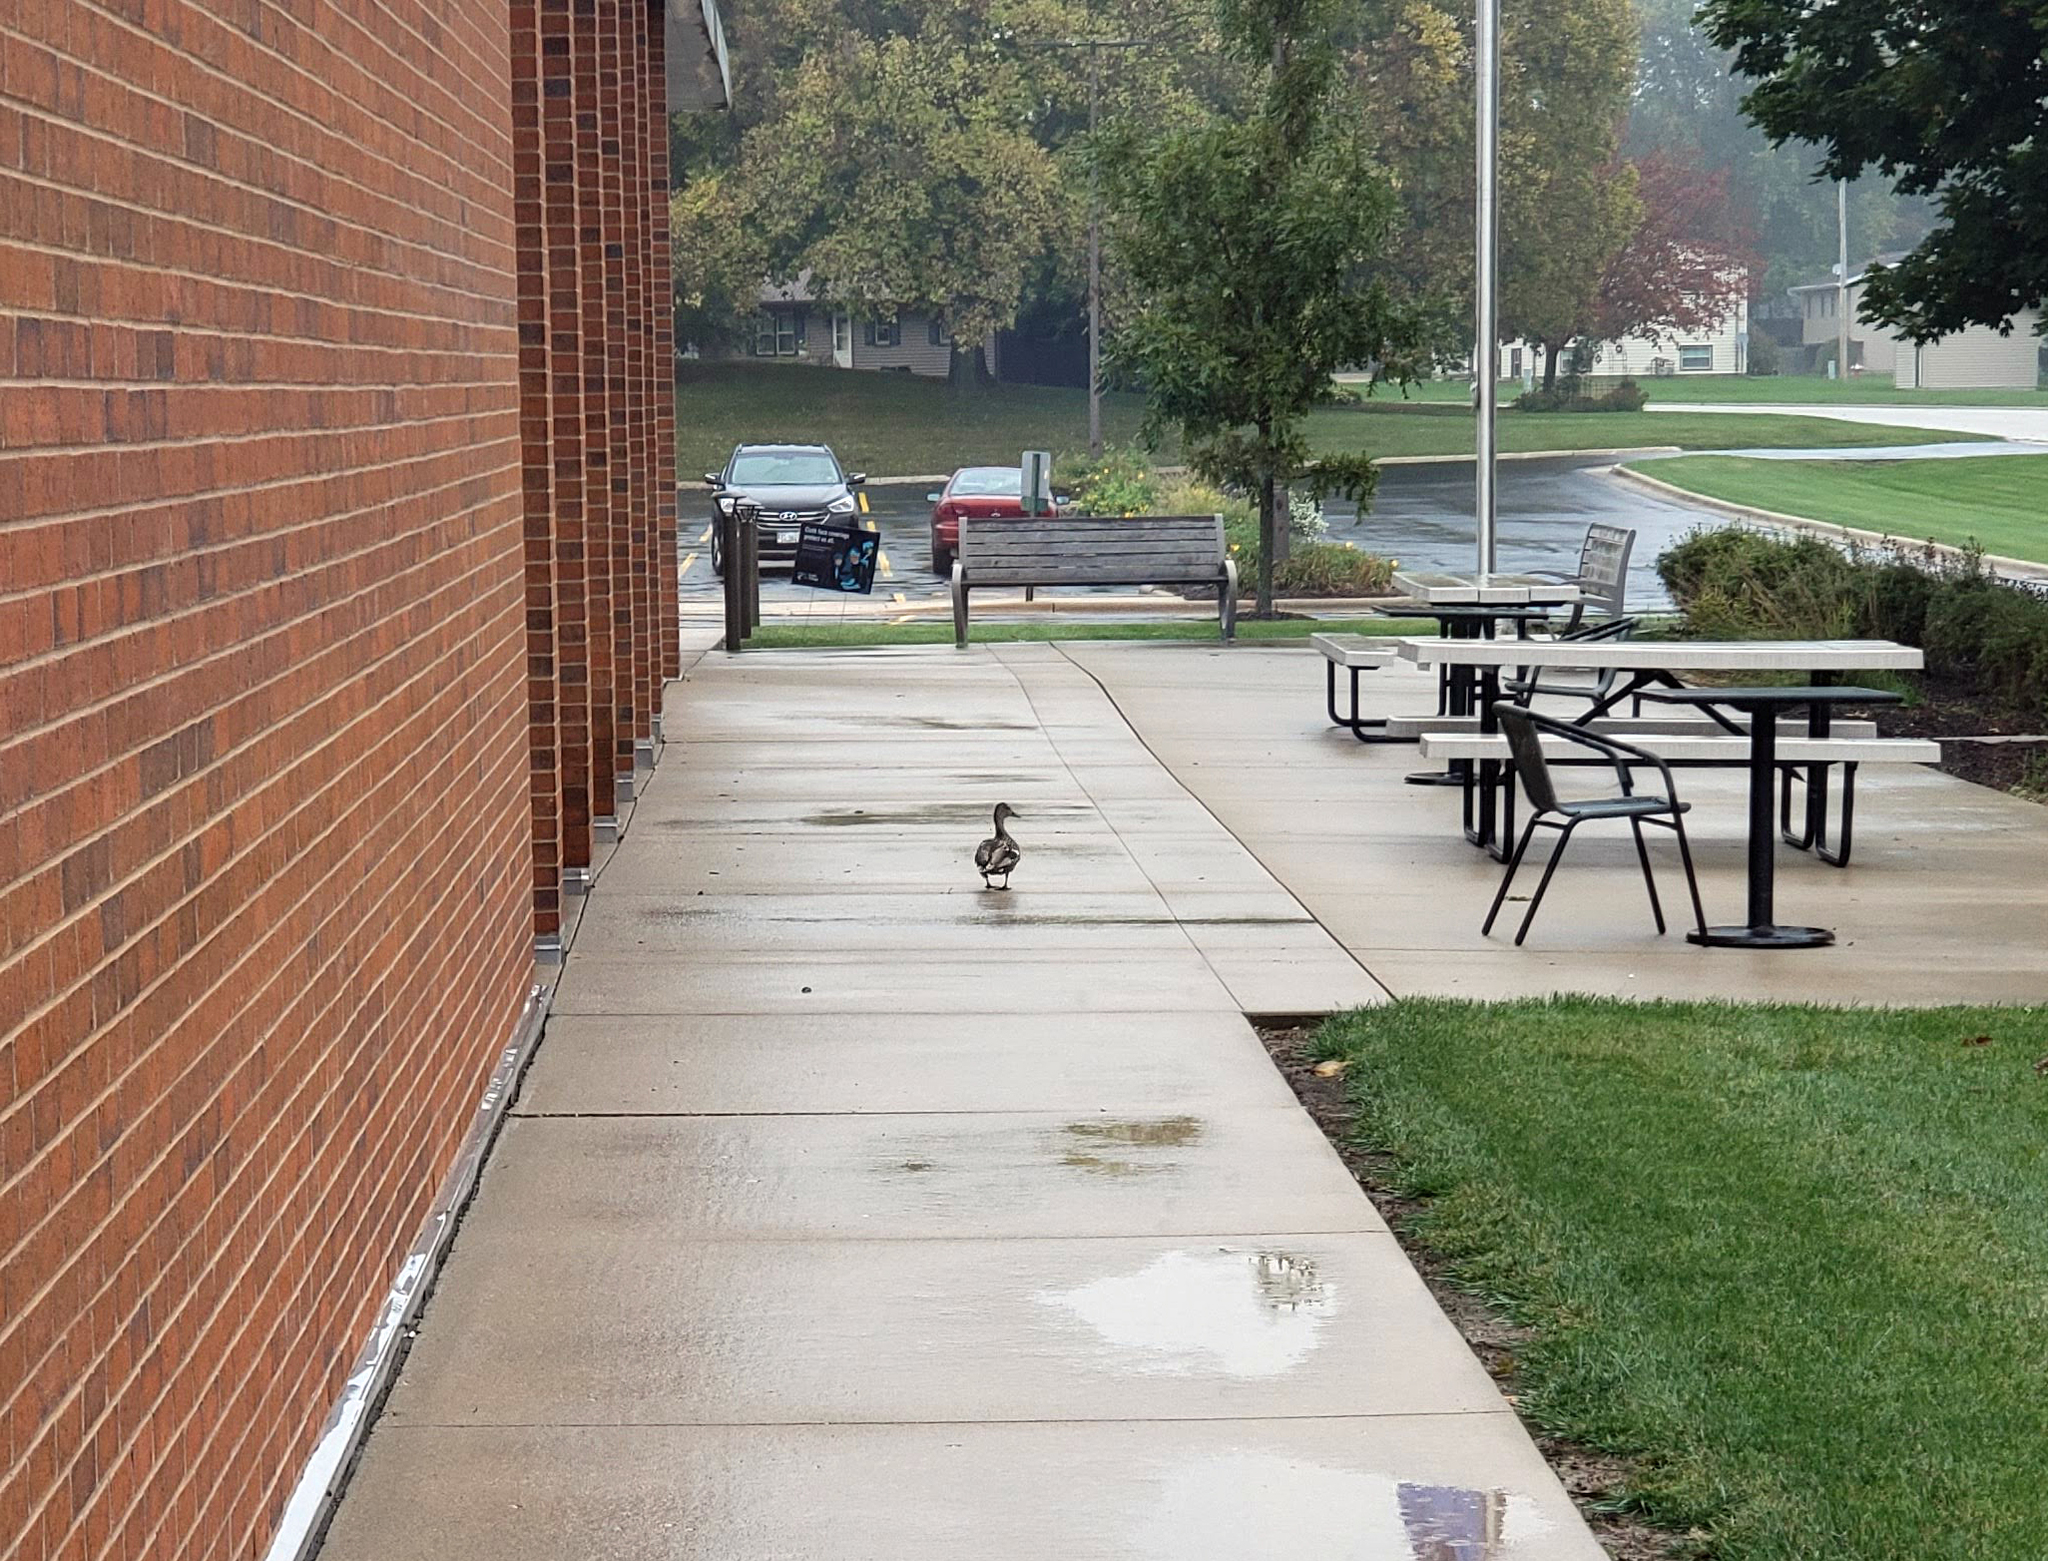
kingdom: Animalia
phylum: Chordata
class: Aves
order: Anseriformes
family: Anatidae
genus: Anas
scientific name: Anas platyrhynchos
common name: Mallard
